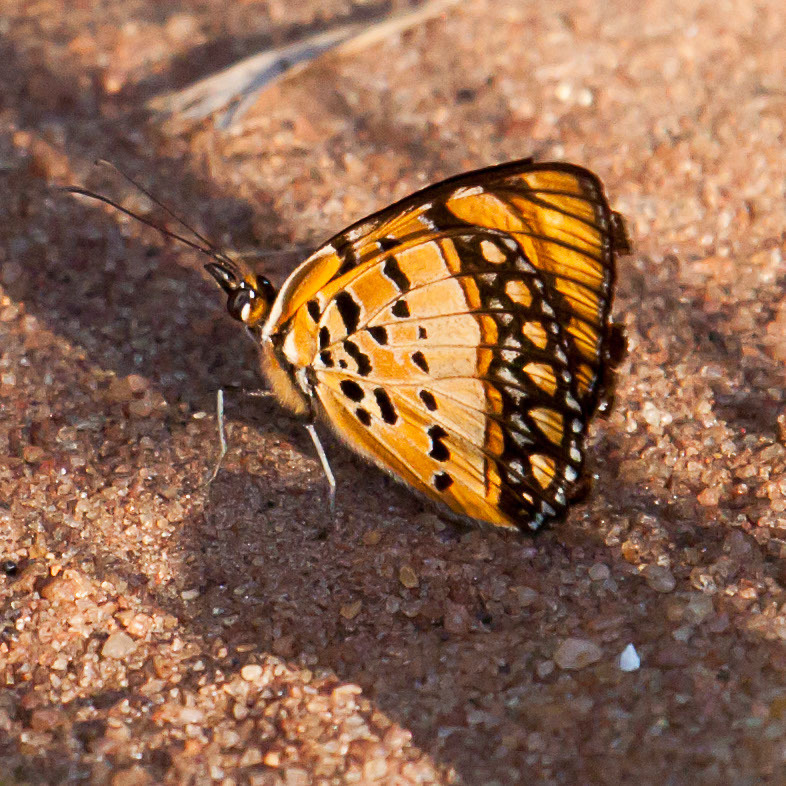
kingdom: Animalia
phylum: Arthropoda
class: Insecta
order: Lepidoptera
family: Nymphalidae
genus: Byblia
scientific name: Byblia acheloia
